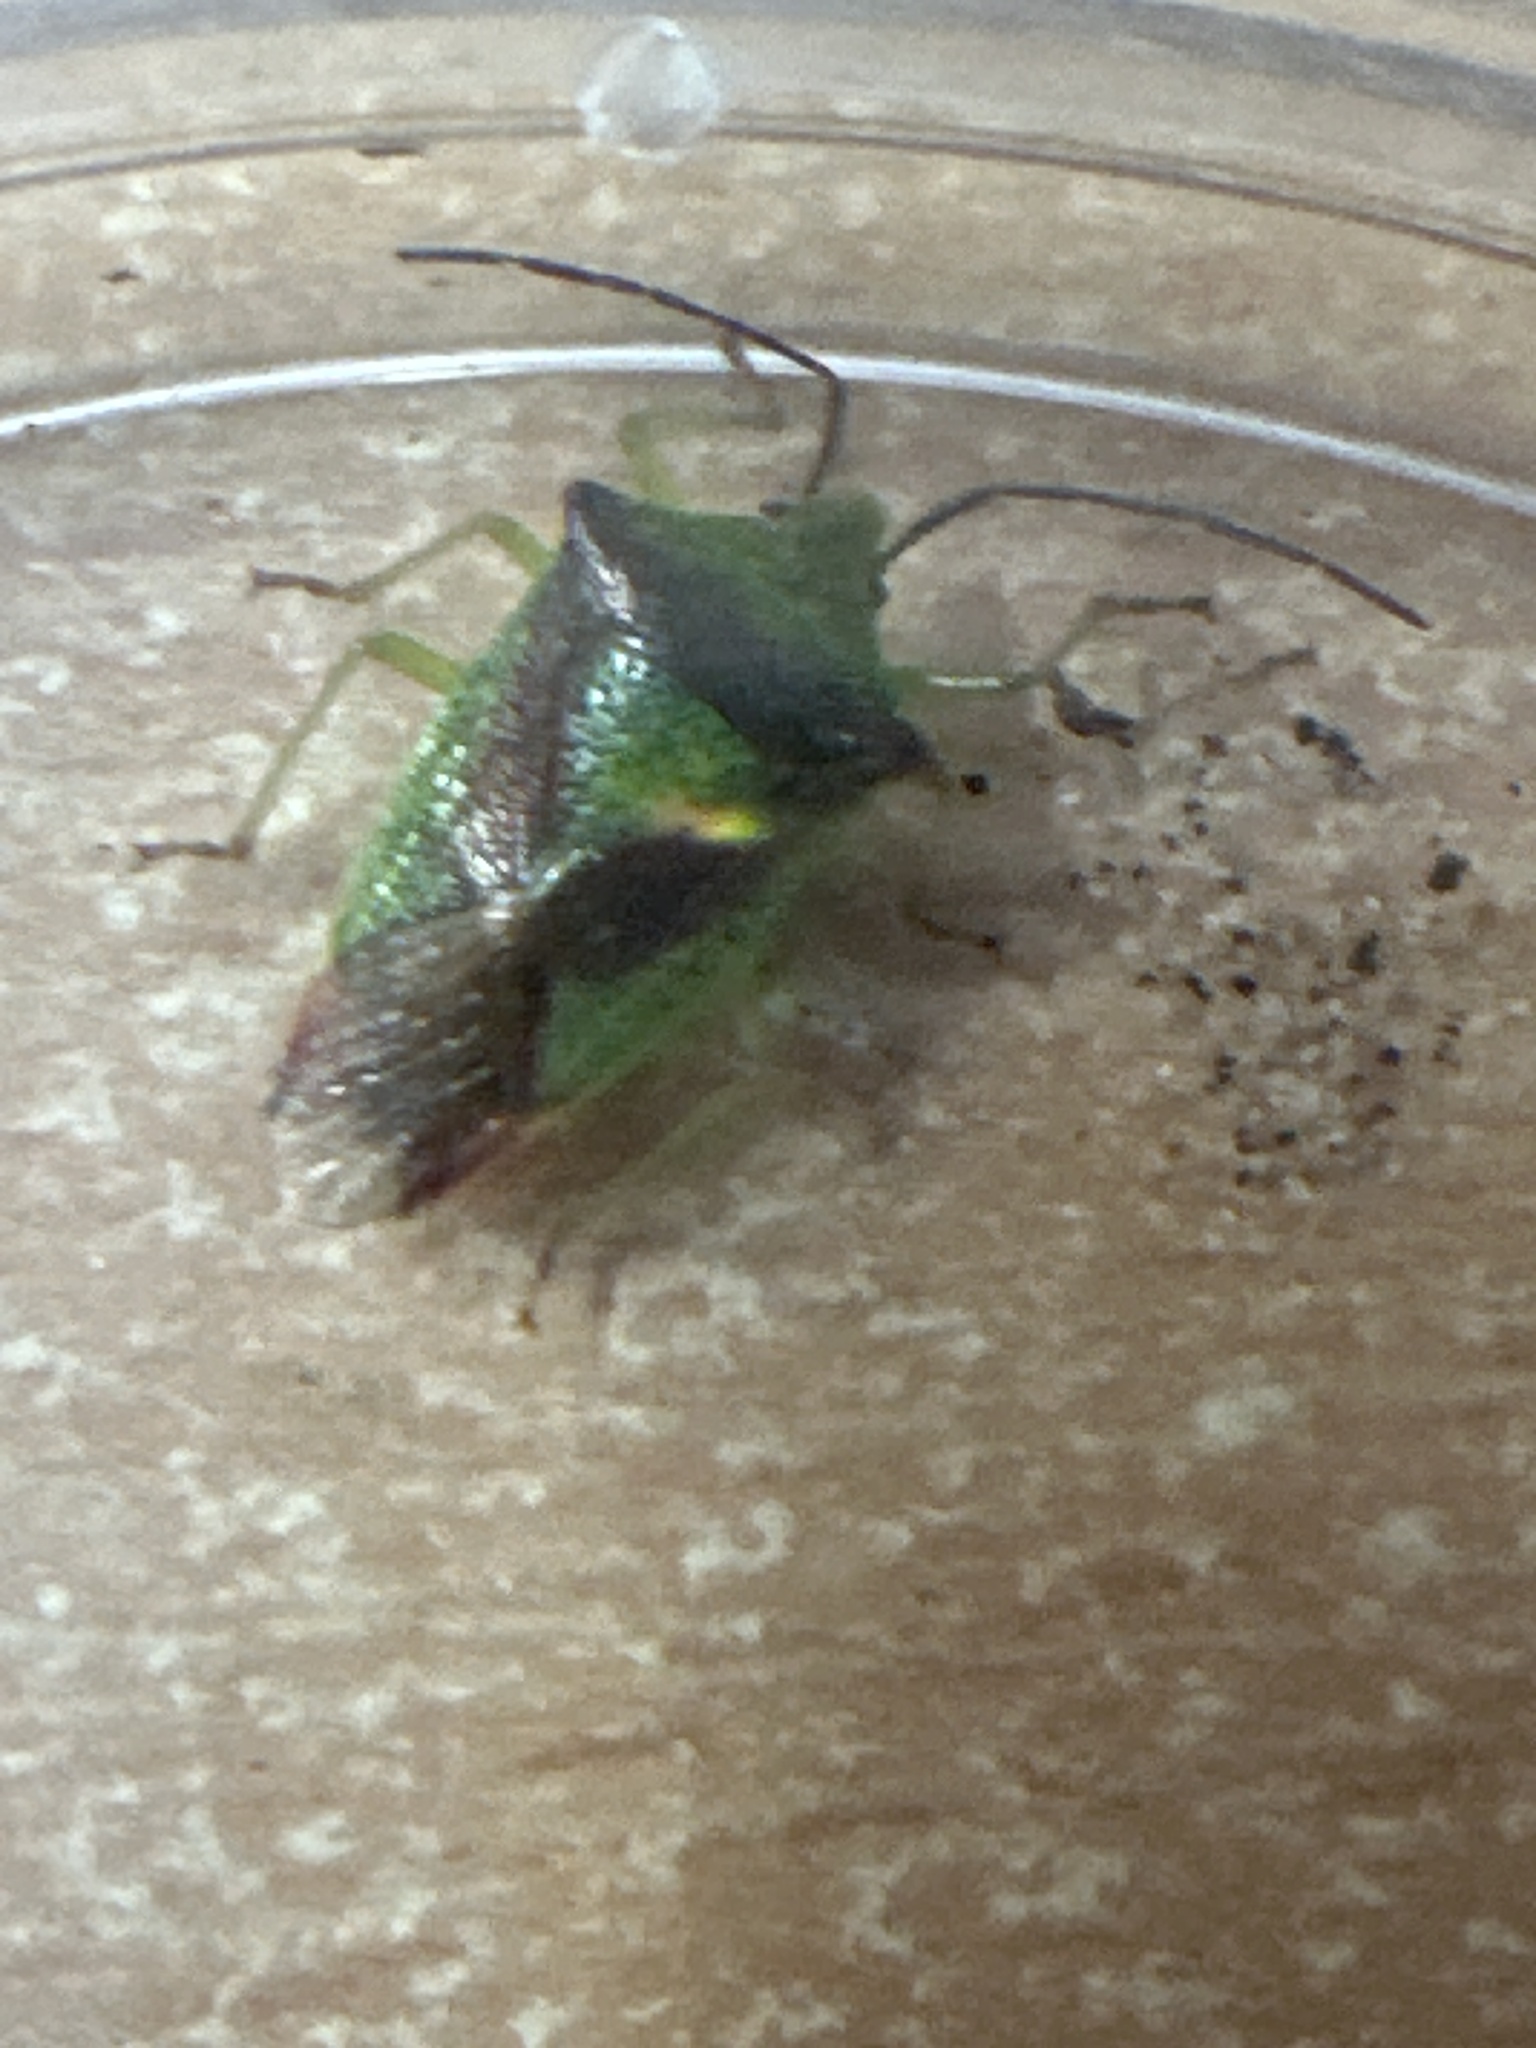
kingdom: Animalia
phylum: Arthropoda
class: Insecta
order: Hemiptera
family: Acanthosomatidae
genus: Acanthosoma
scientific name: Acanthosoma haemorrhoidale
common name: Hawthorn shieldbug
